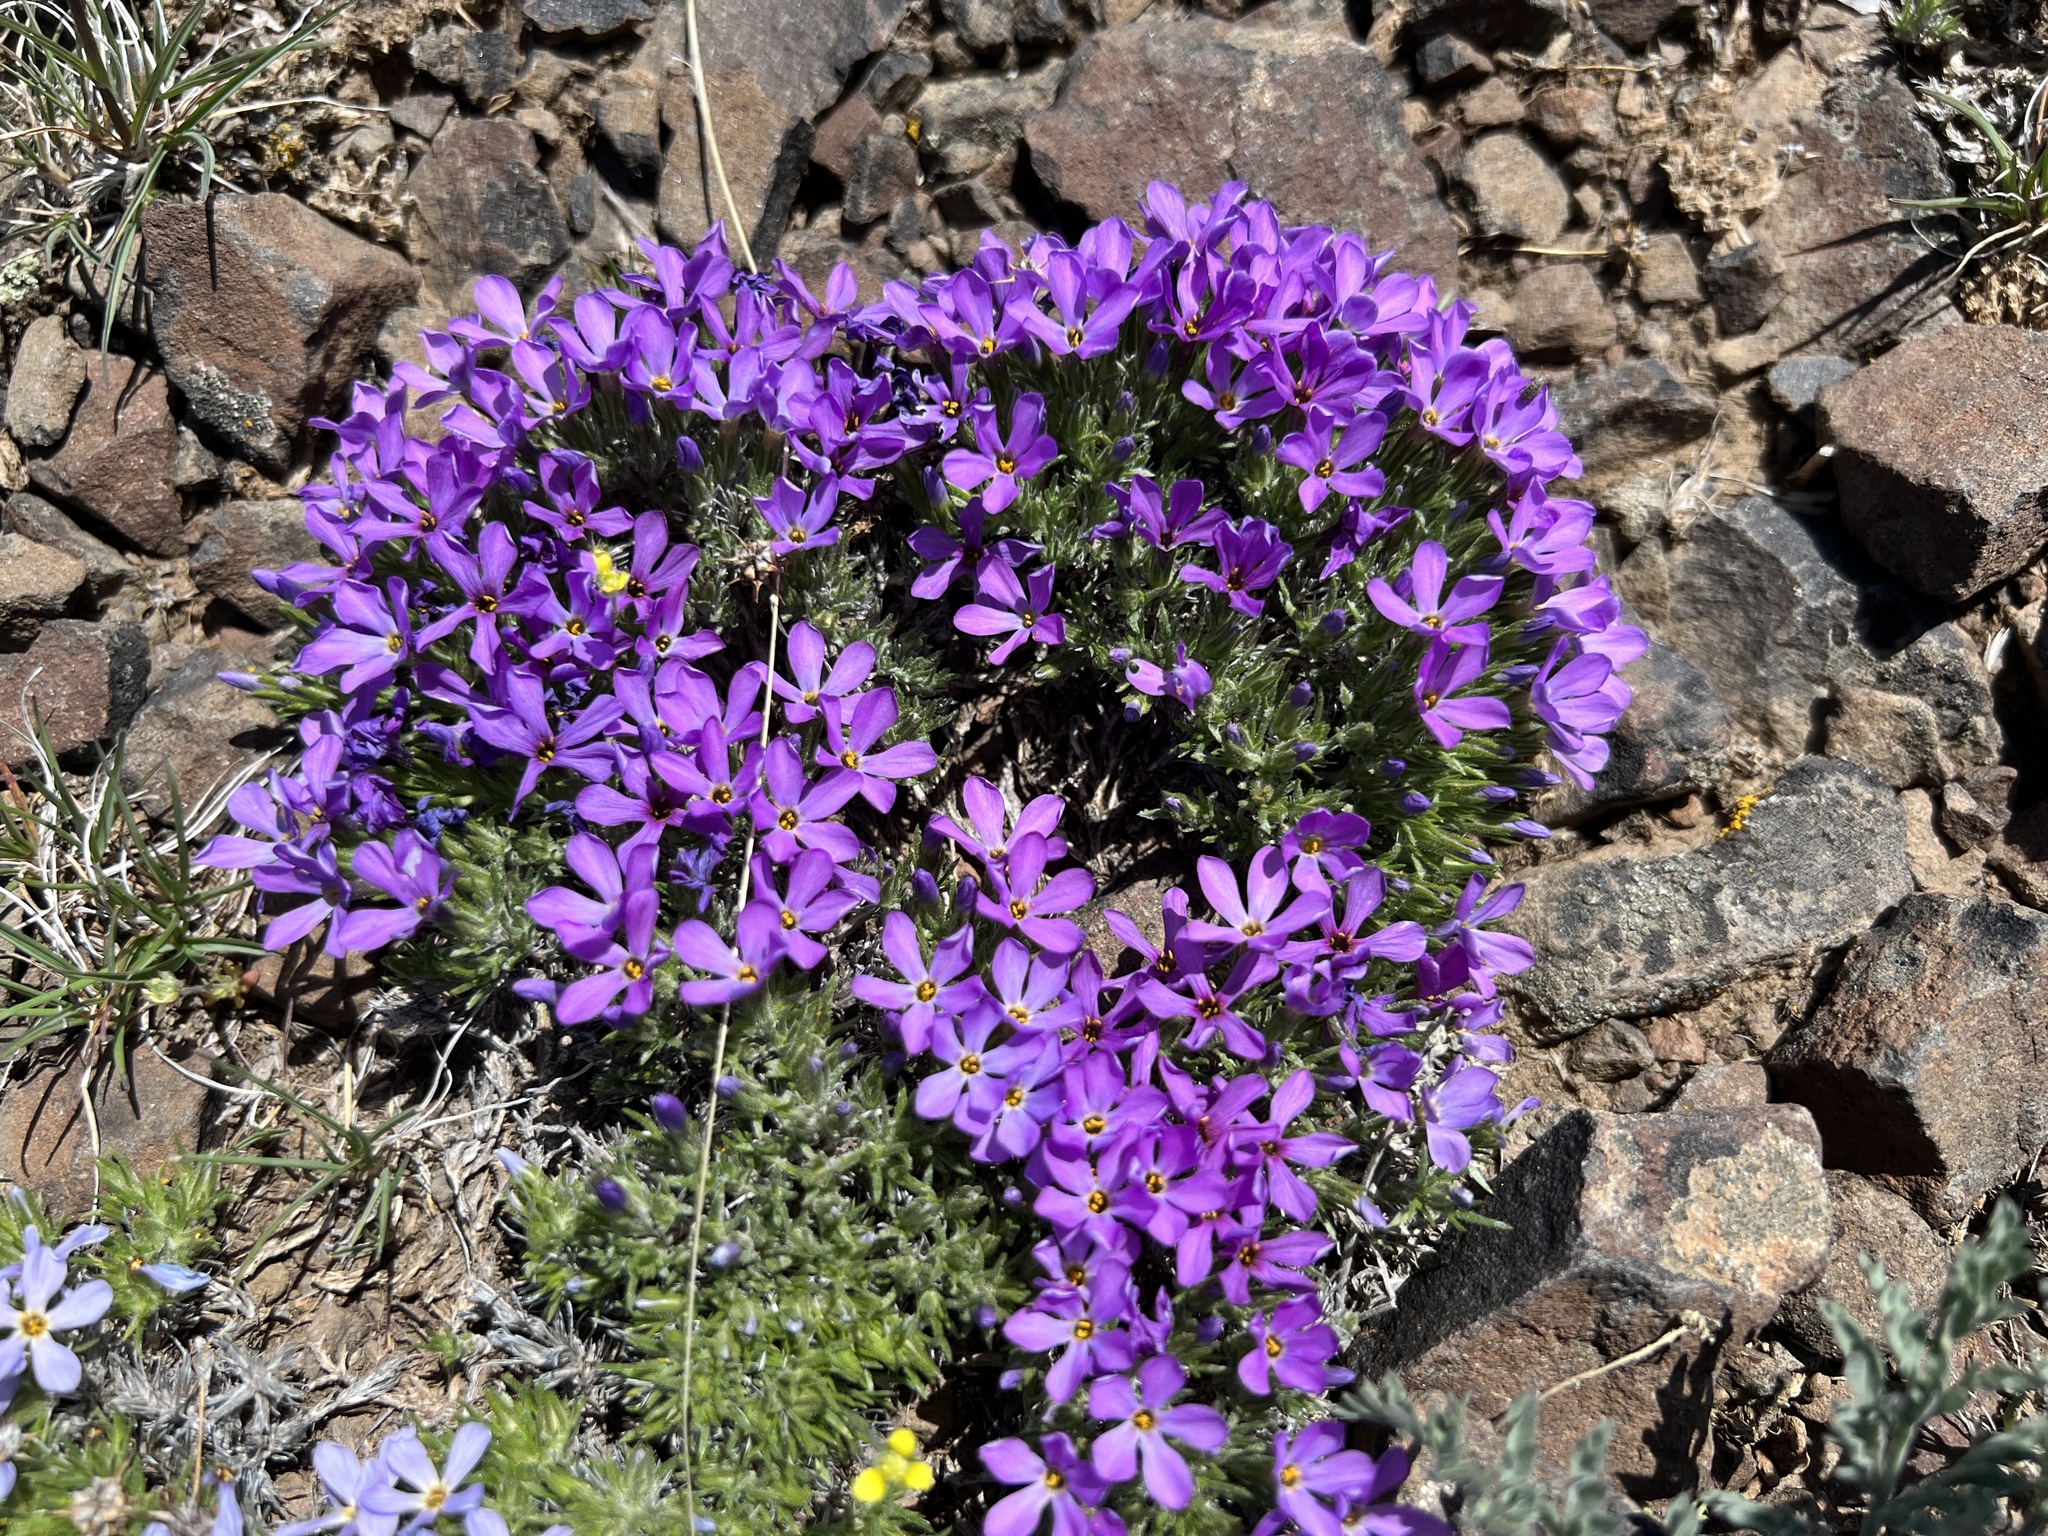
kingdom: Plantae
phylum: Tracheophyta
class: Magnoliopsida
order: Ericales
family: Polemoniaceae
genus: Phlox
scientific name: Phlox douglasii
